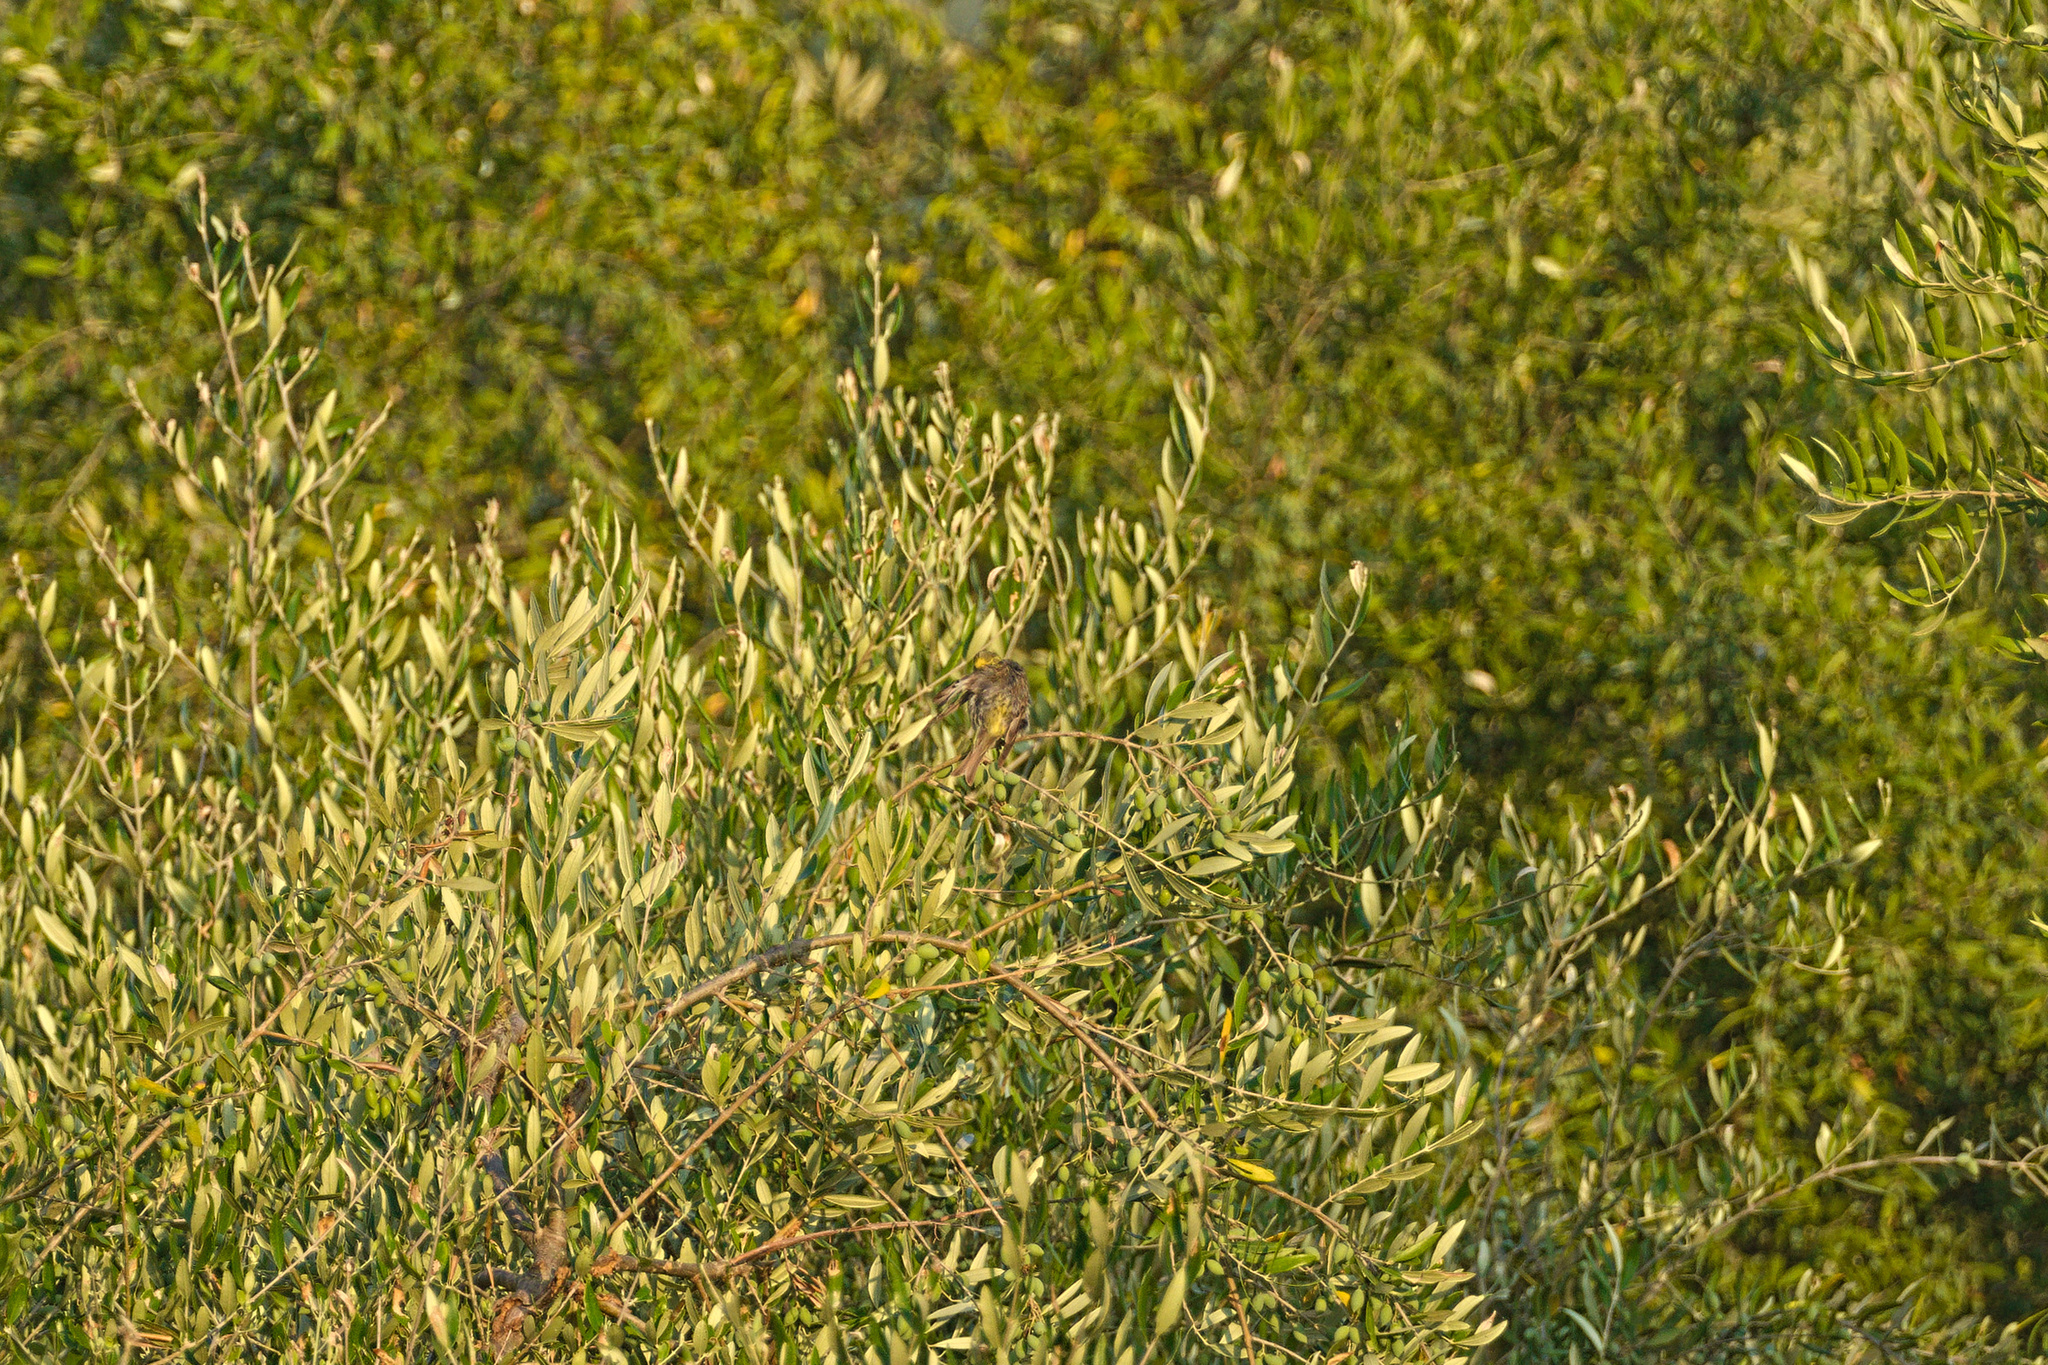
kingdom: Animalia
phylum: Chordata
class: Aves
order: Passeriformes
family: Fringillidae
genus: Serinus
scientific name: Serinus serinus
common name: European serin
